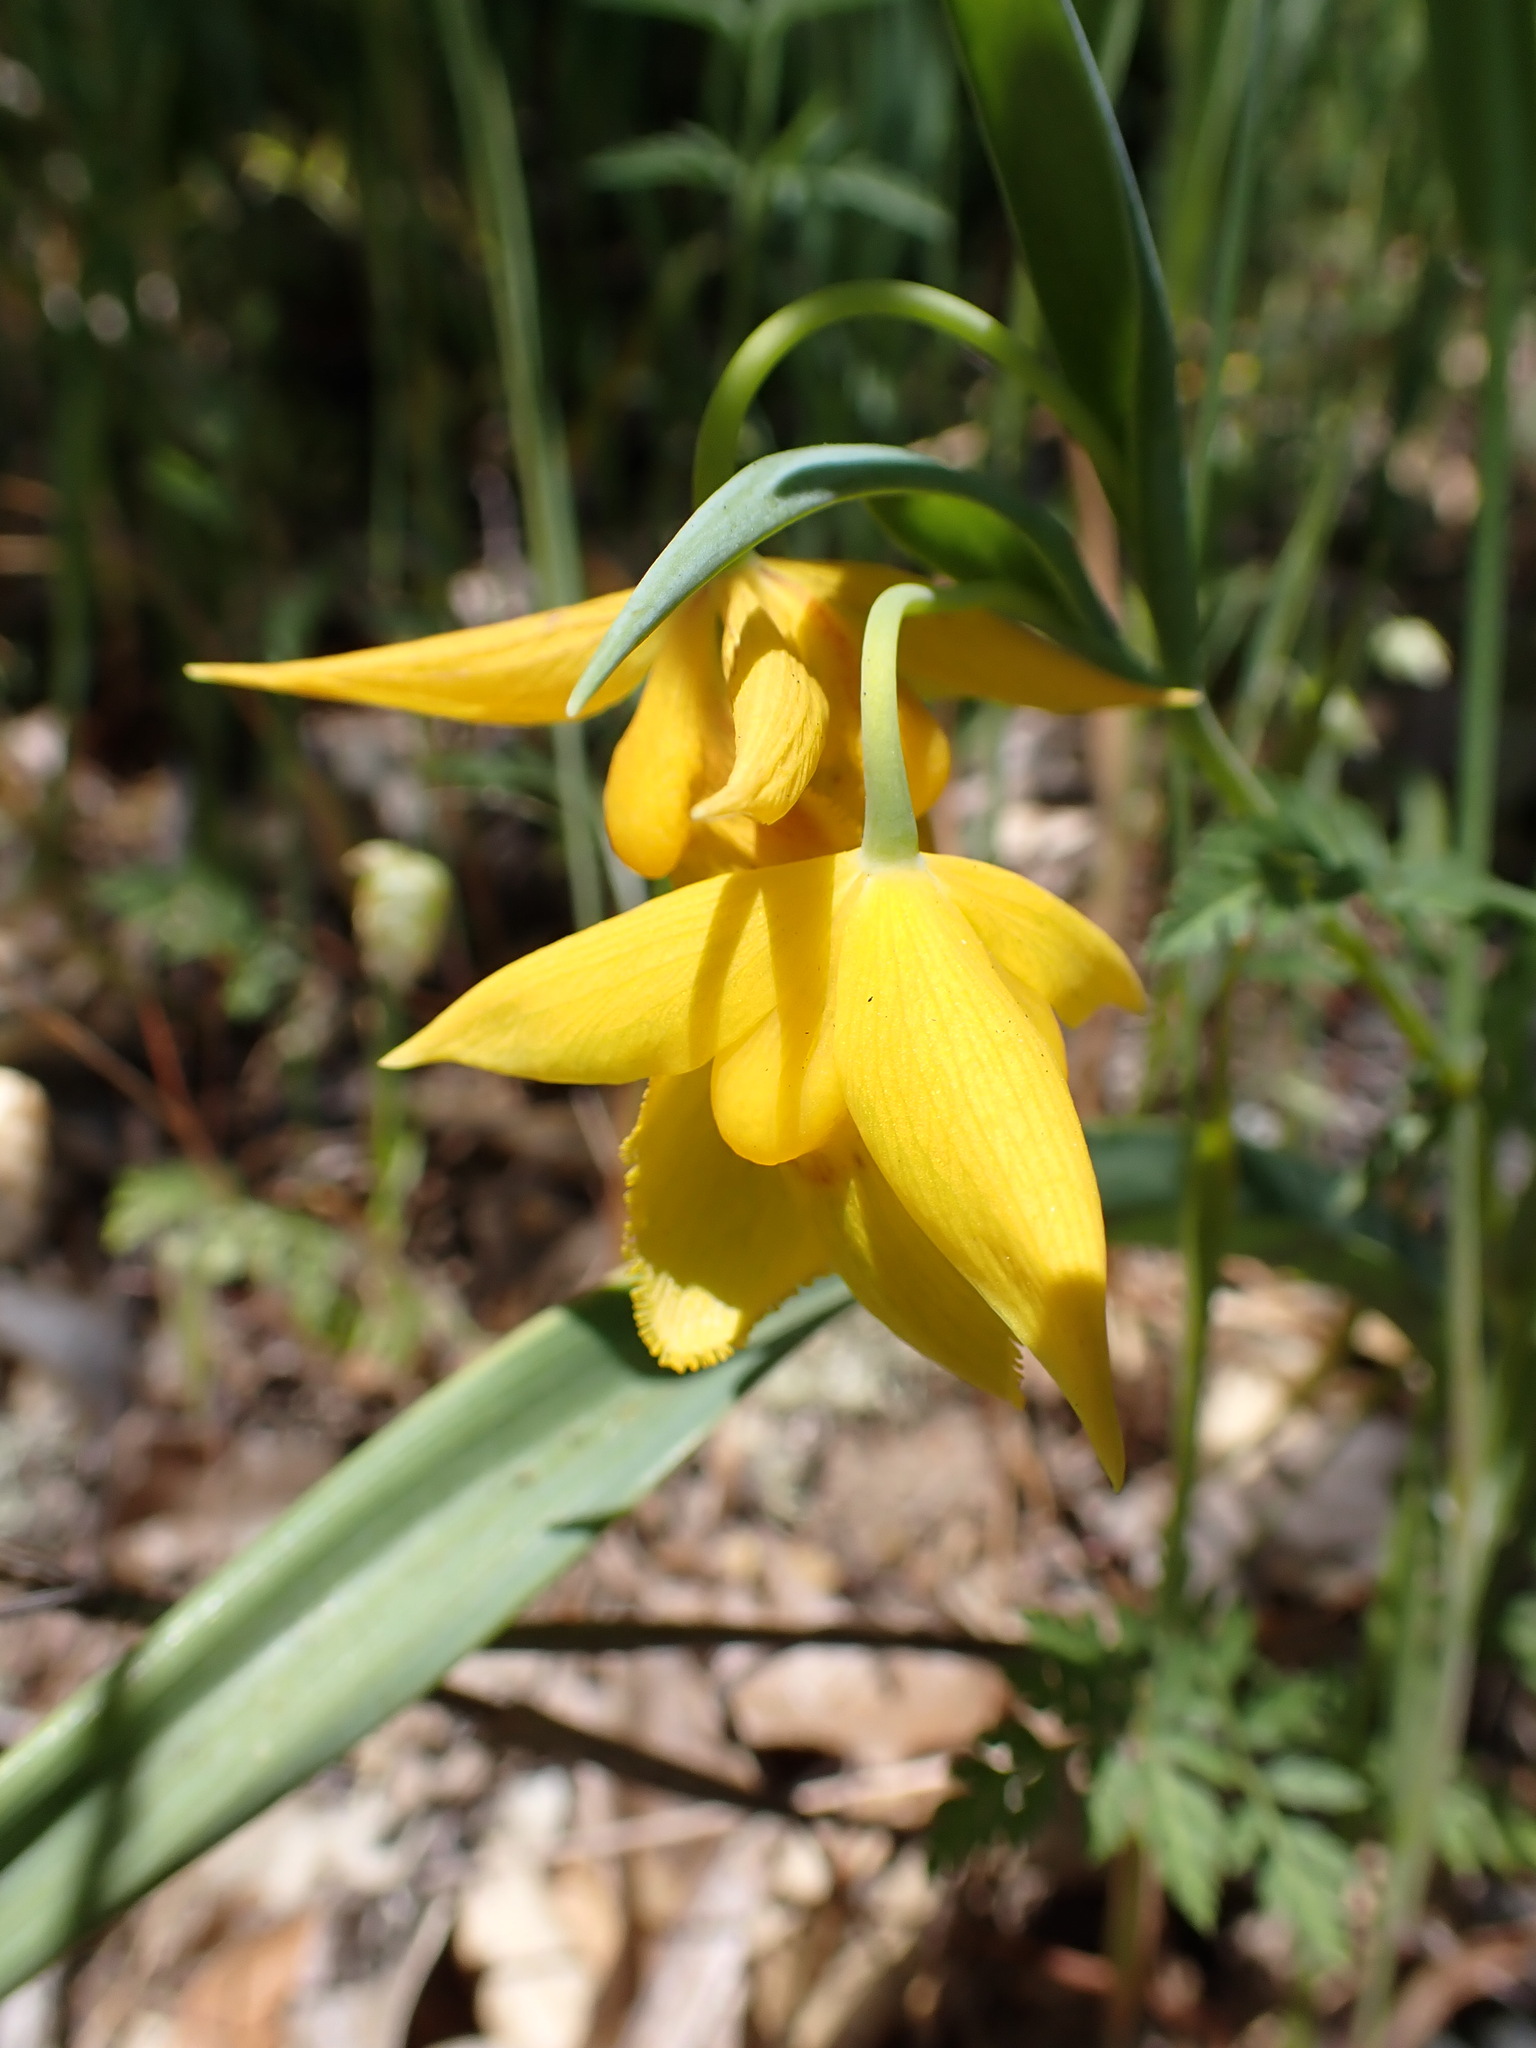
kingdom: Plantae
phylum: Tracheophyta
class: Liliopsida
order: Liliales
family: Liliaceae
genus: Calochortus
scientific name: Calochortus amabilis
